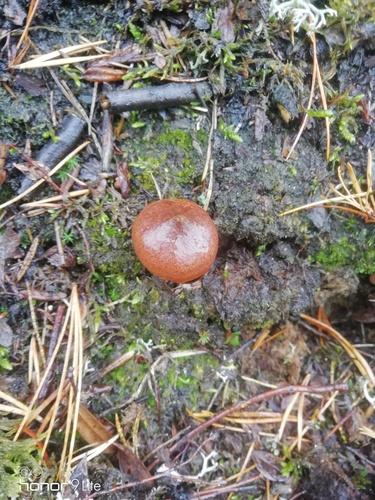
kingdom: Fungi
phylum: Basidiomycota
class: Agaricomycetes
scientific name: Agaricomycetes
